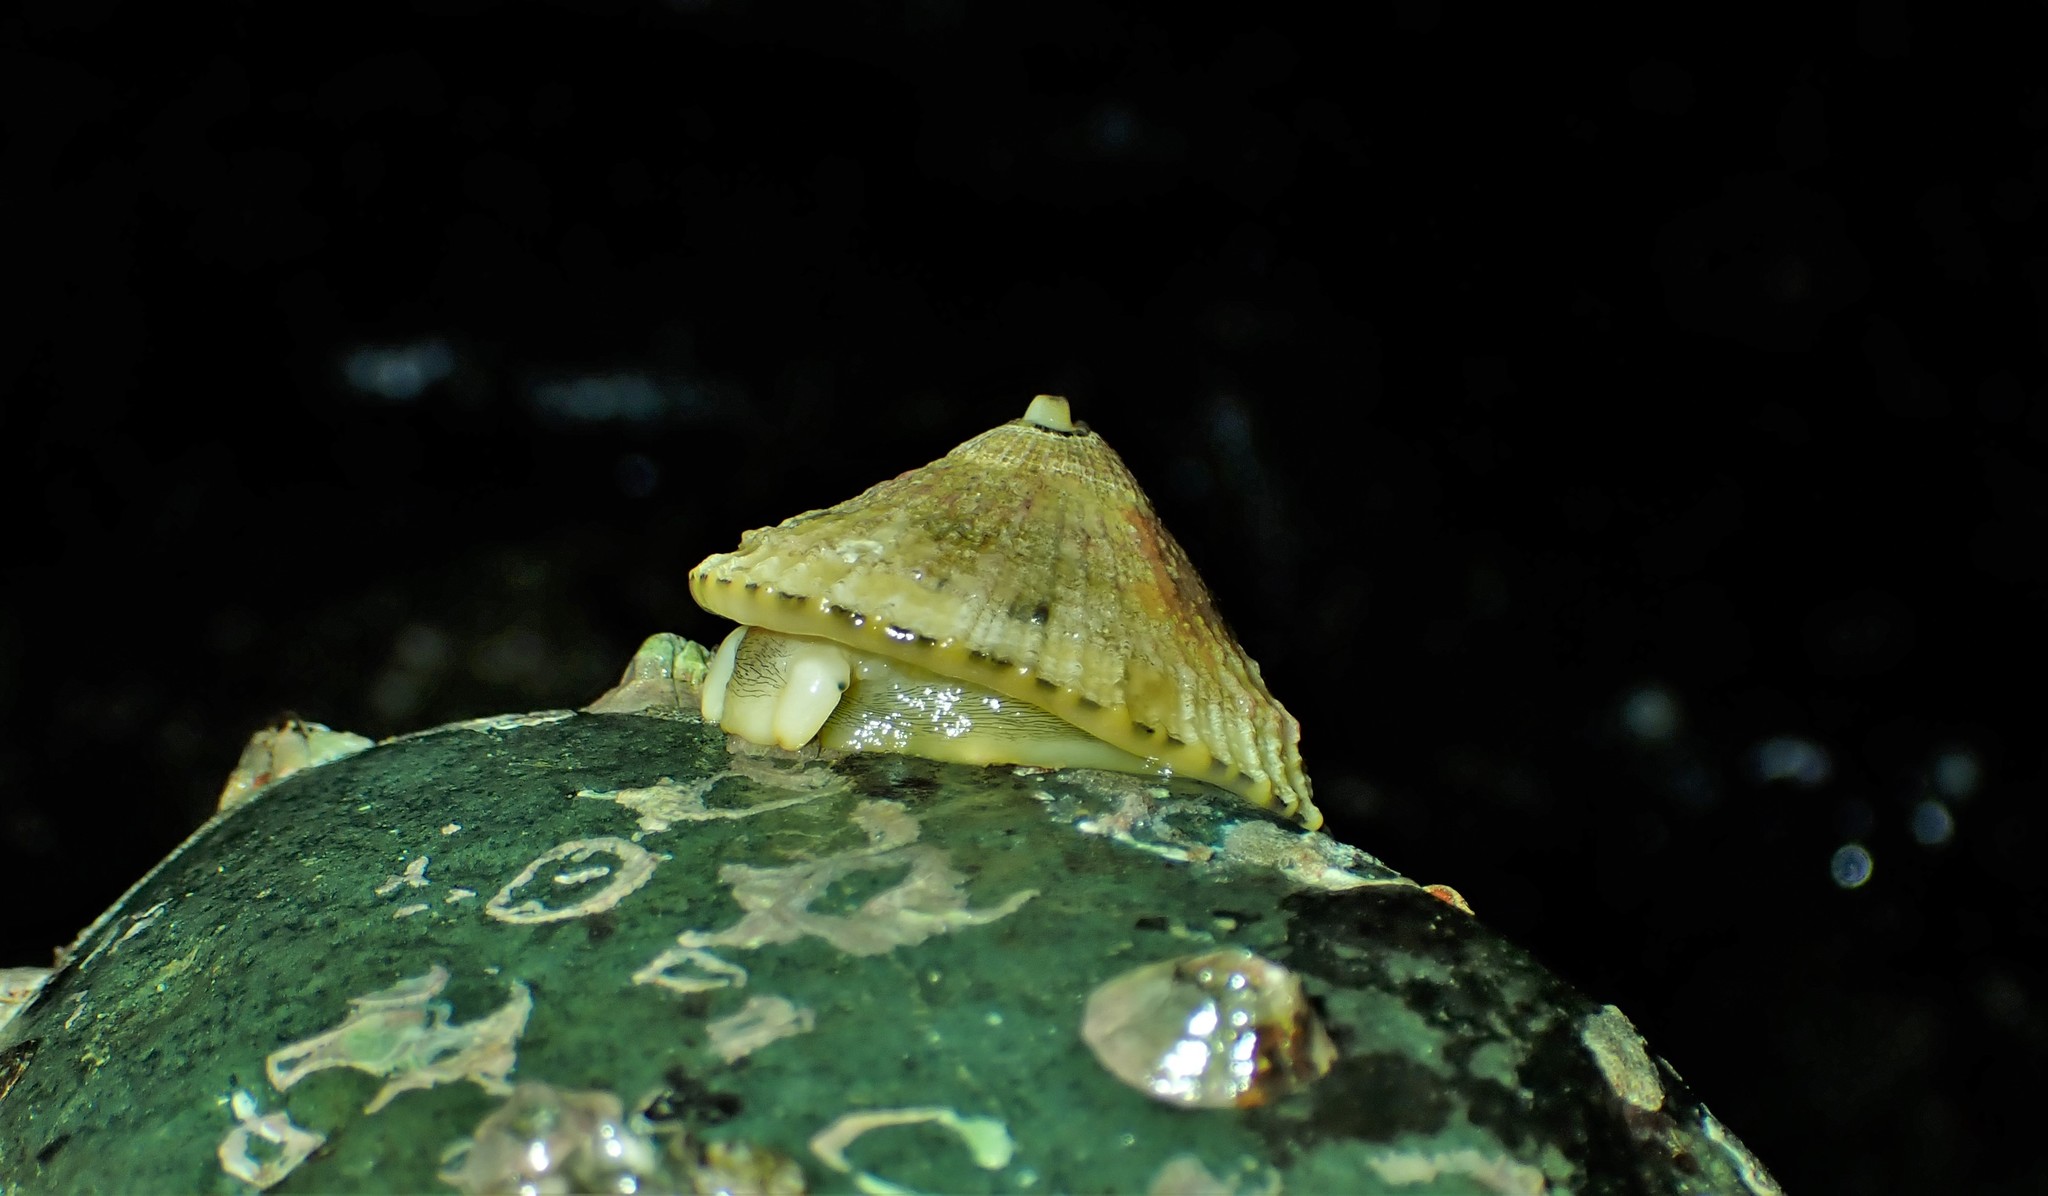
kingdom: Animalia
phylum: Mollusca
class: Gastropoda
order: Lepetellida
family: Fissurellidae
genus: Diodora
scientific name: Diodora aspera
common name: Rough keyhole limpet
